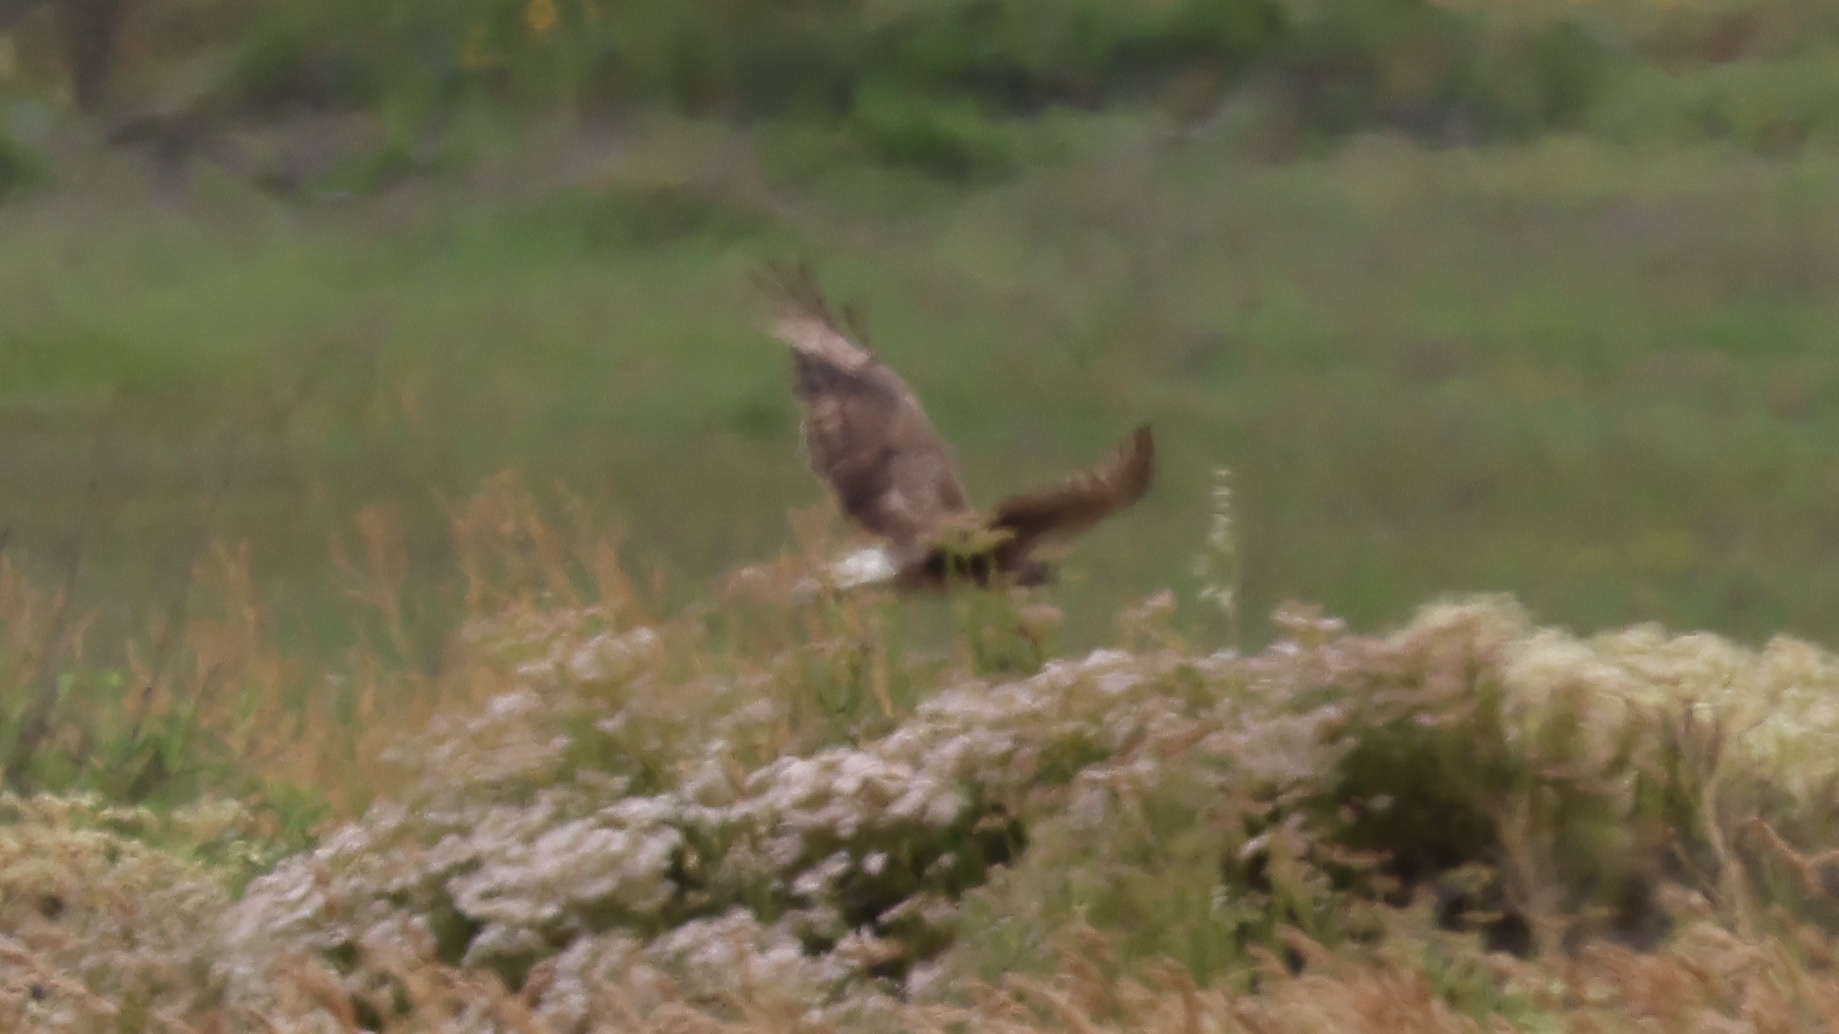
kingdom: Animalia
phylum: Chordata
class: Aves
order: Accipitriformes
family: Accipitridae
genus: Circus
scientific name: Circus cyaneus
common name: Hen harrier
